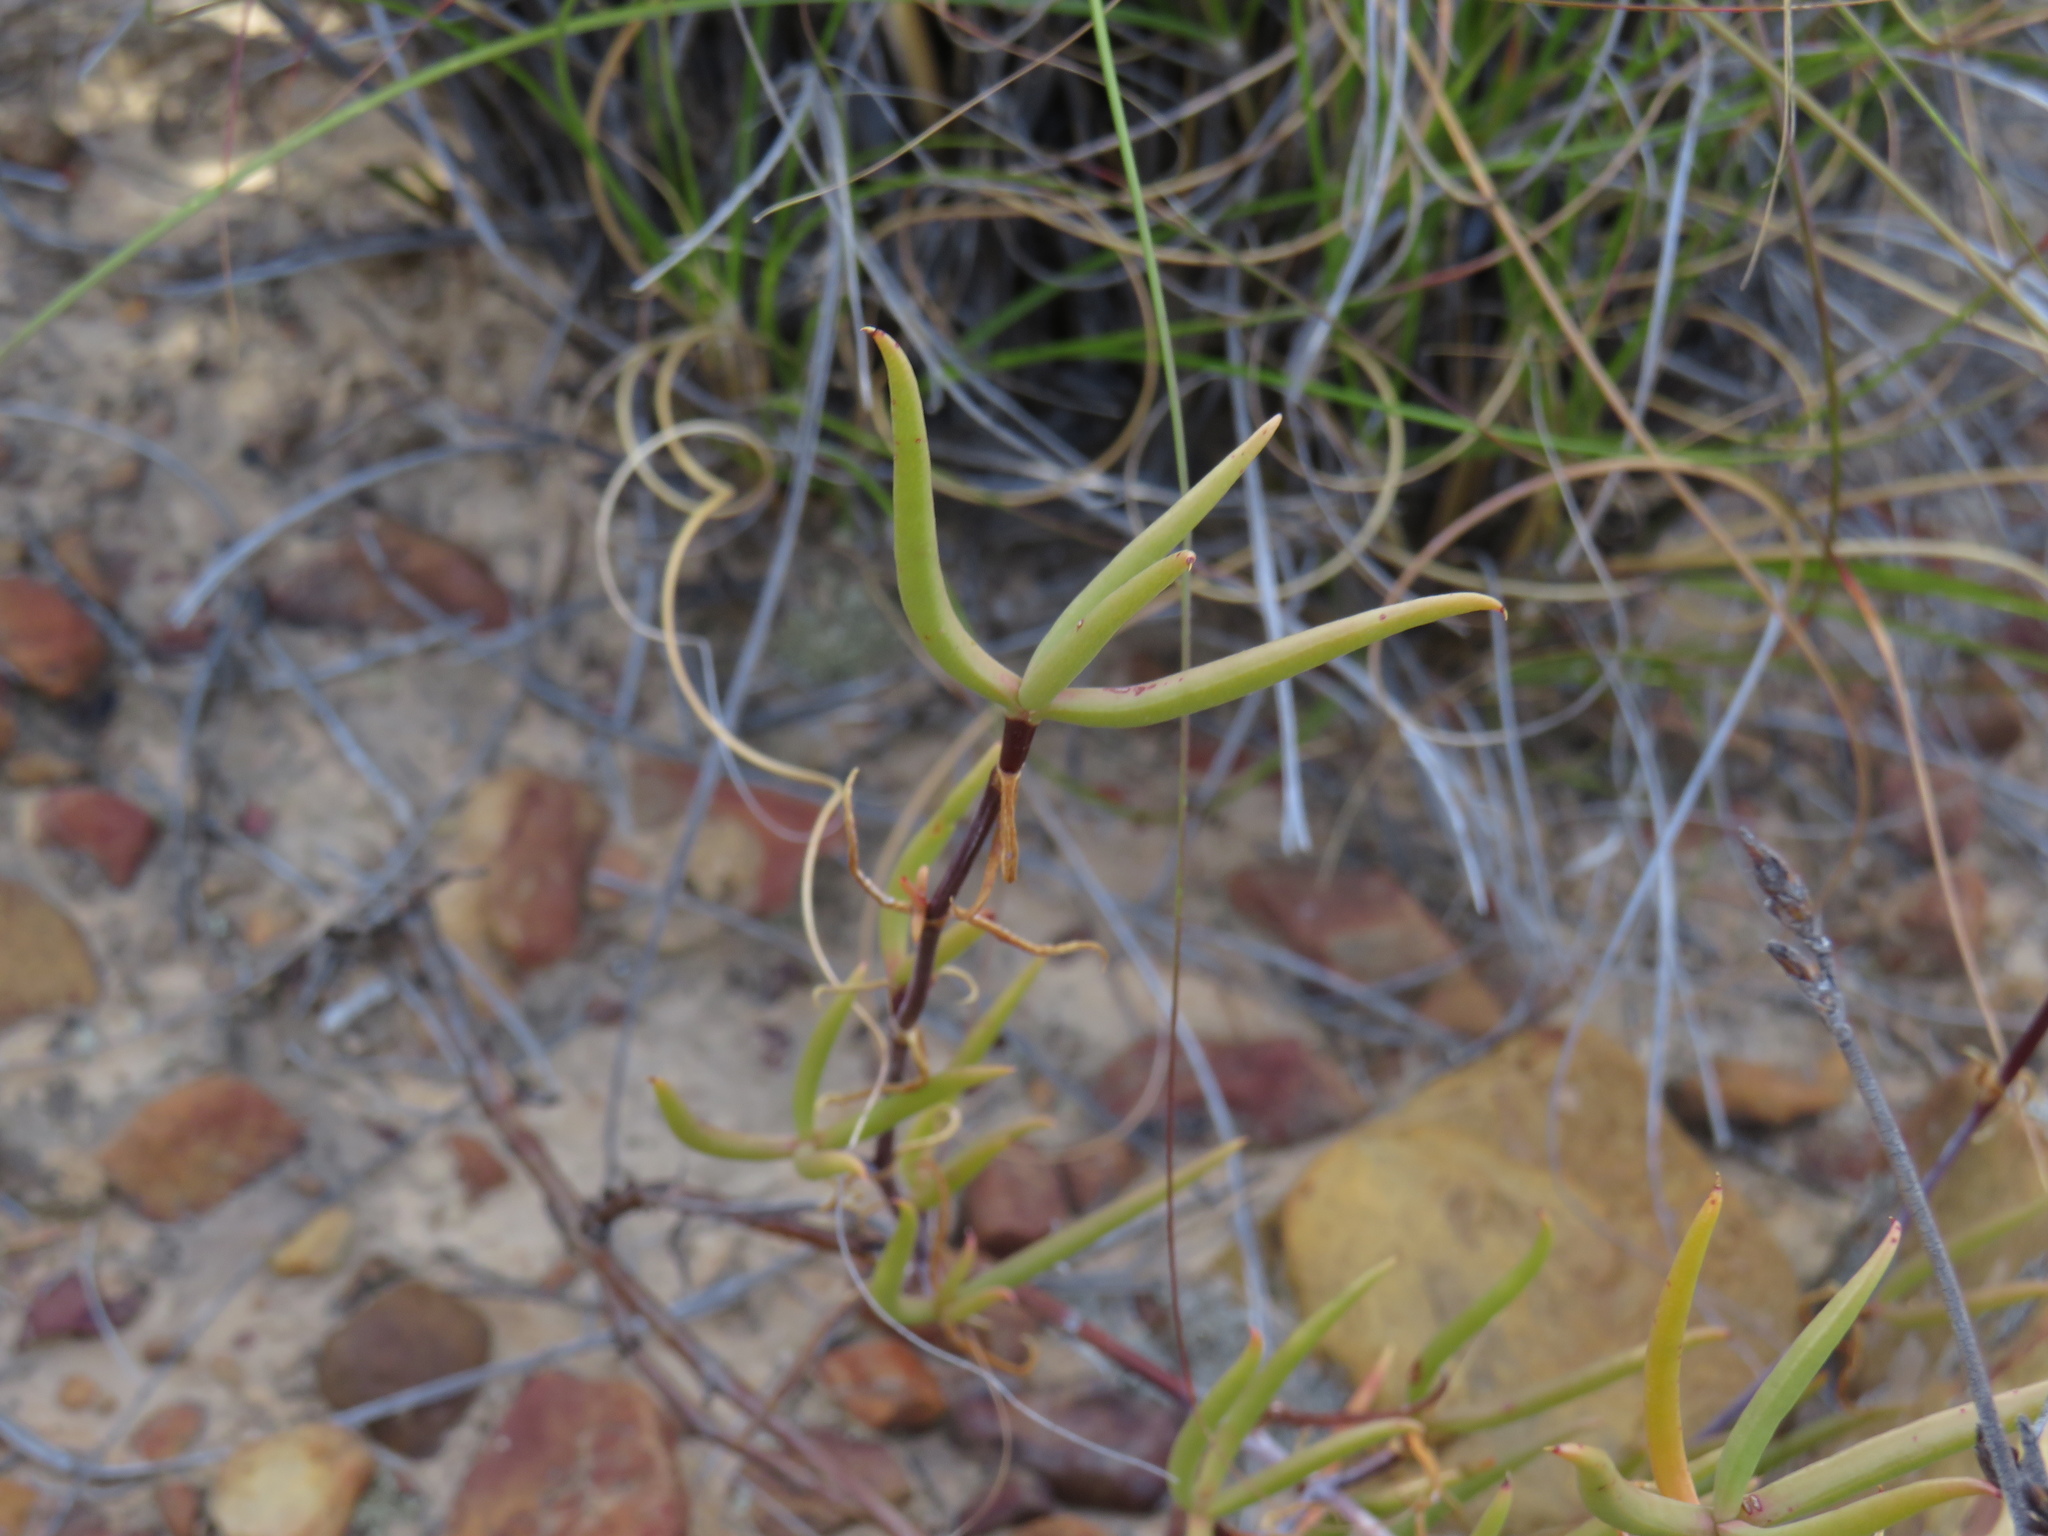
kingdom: Plantae
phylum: Tracheophyta
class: Magnoliopsida
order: Caryophyllales
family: Aizoaceae
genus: Lampranthus
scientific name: Lampranthus spiniformis
